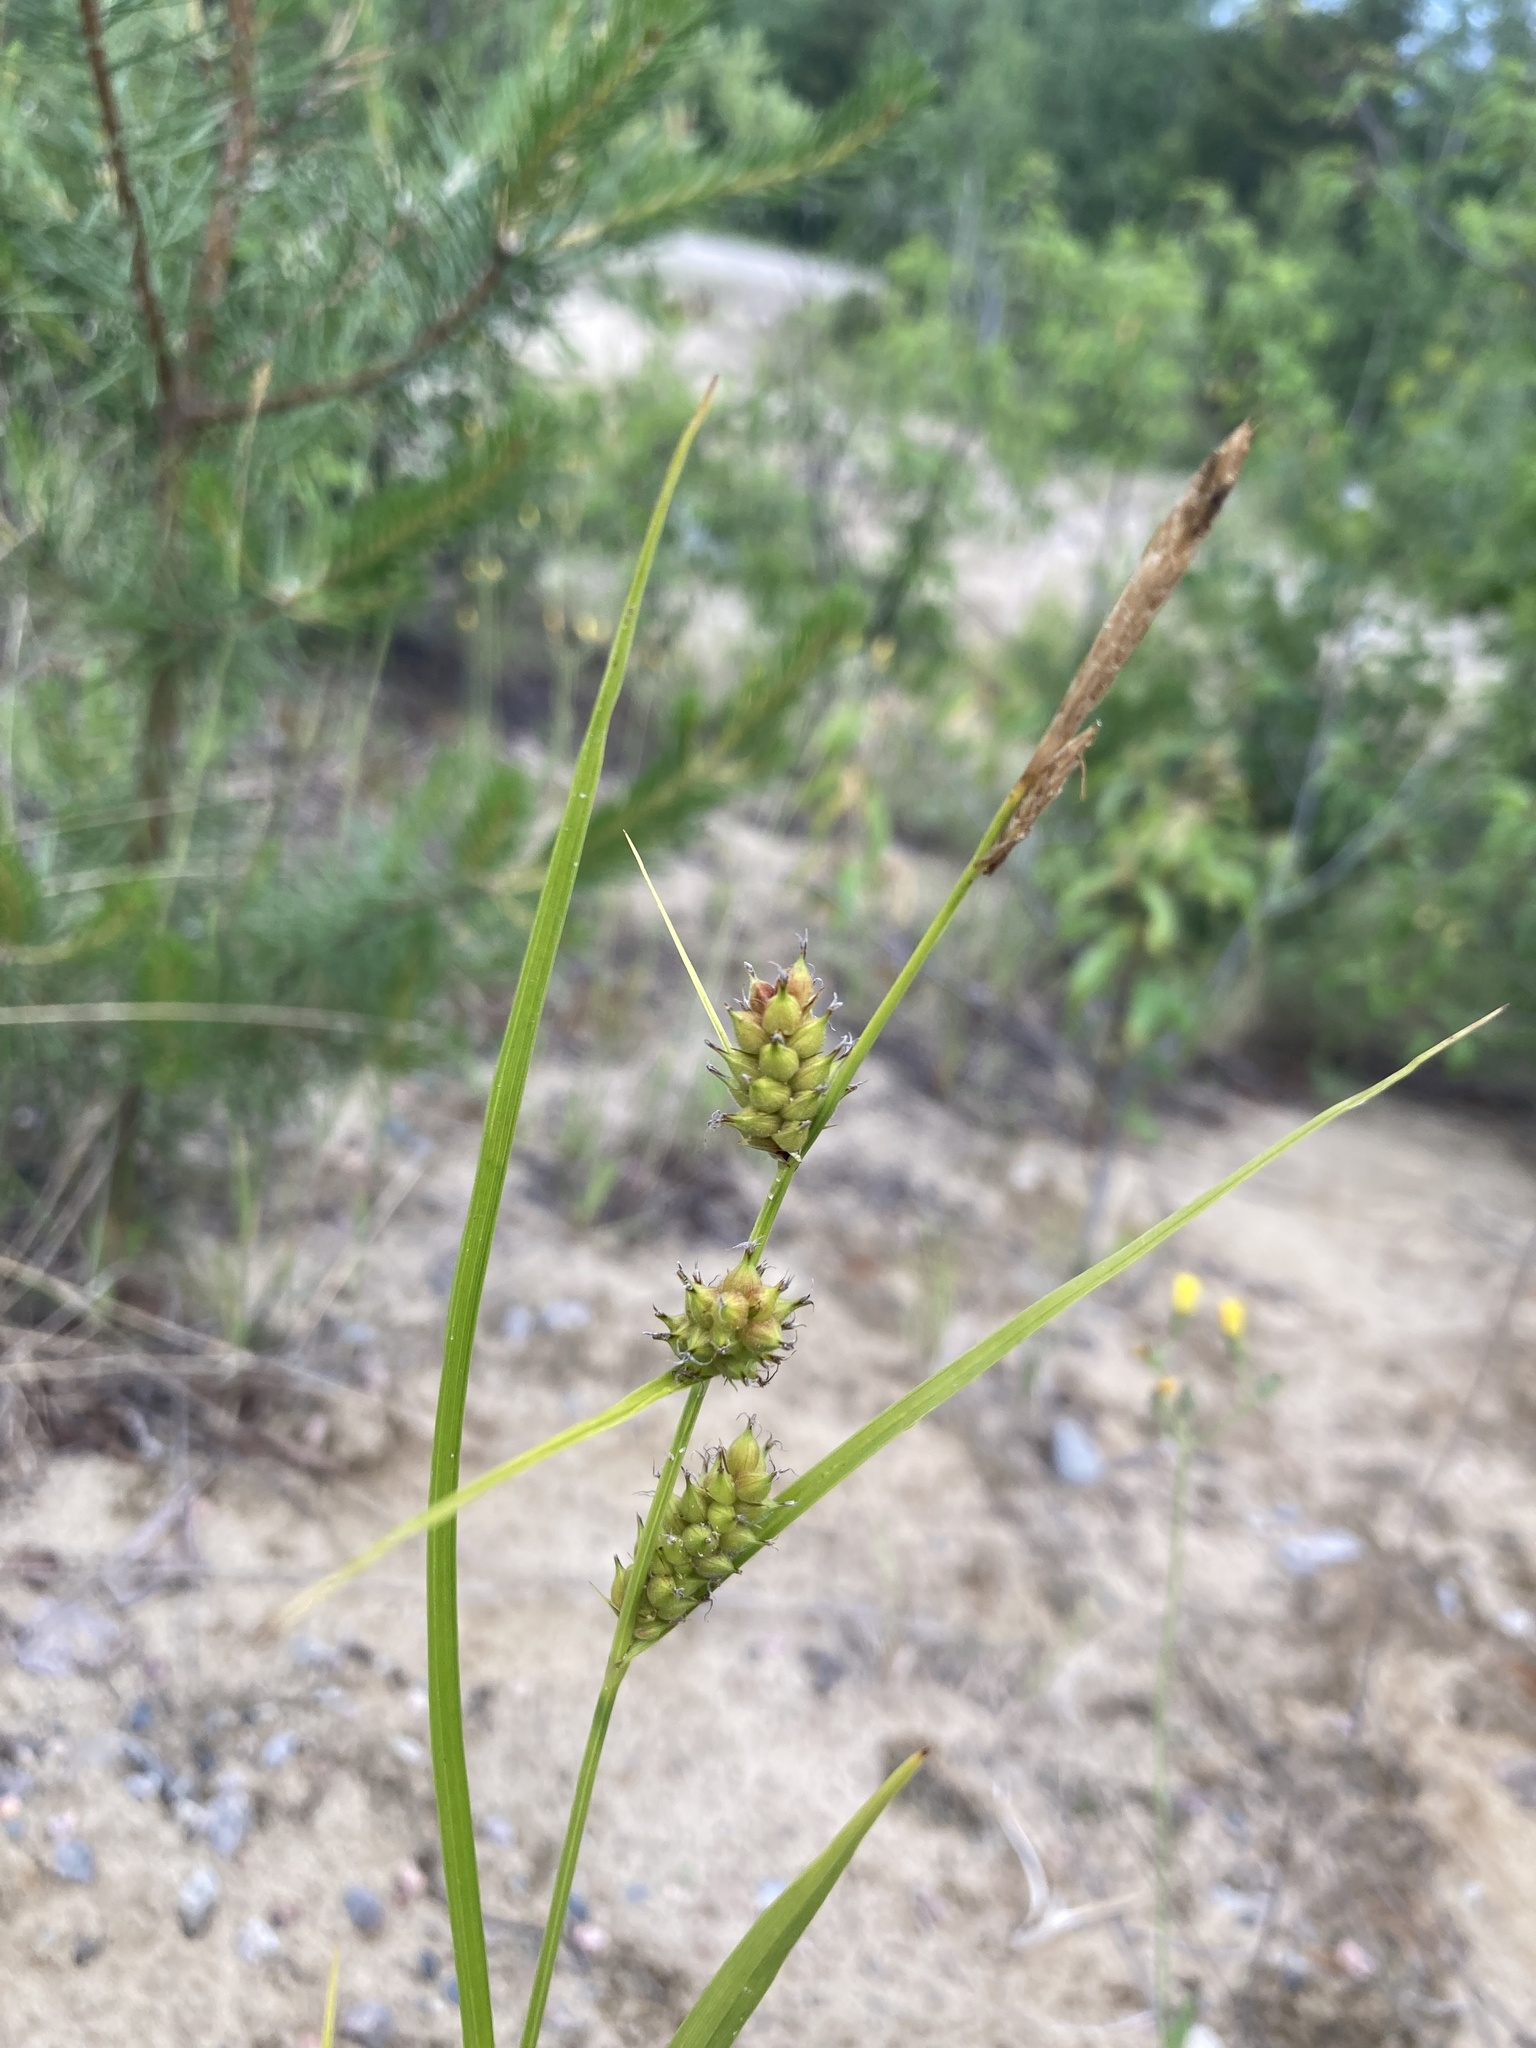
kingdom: Plantae
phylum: Tracheophyta
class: Liliopsida
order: Poales
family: Cyperaceae
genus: Carex
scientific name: Carex houghtoniana
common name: Houghton's sedge
